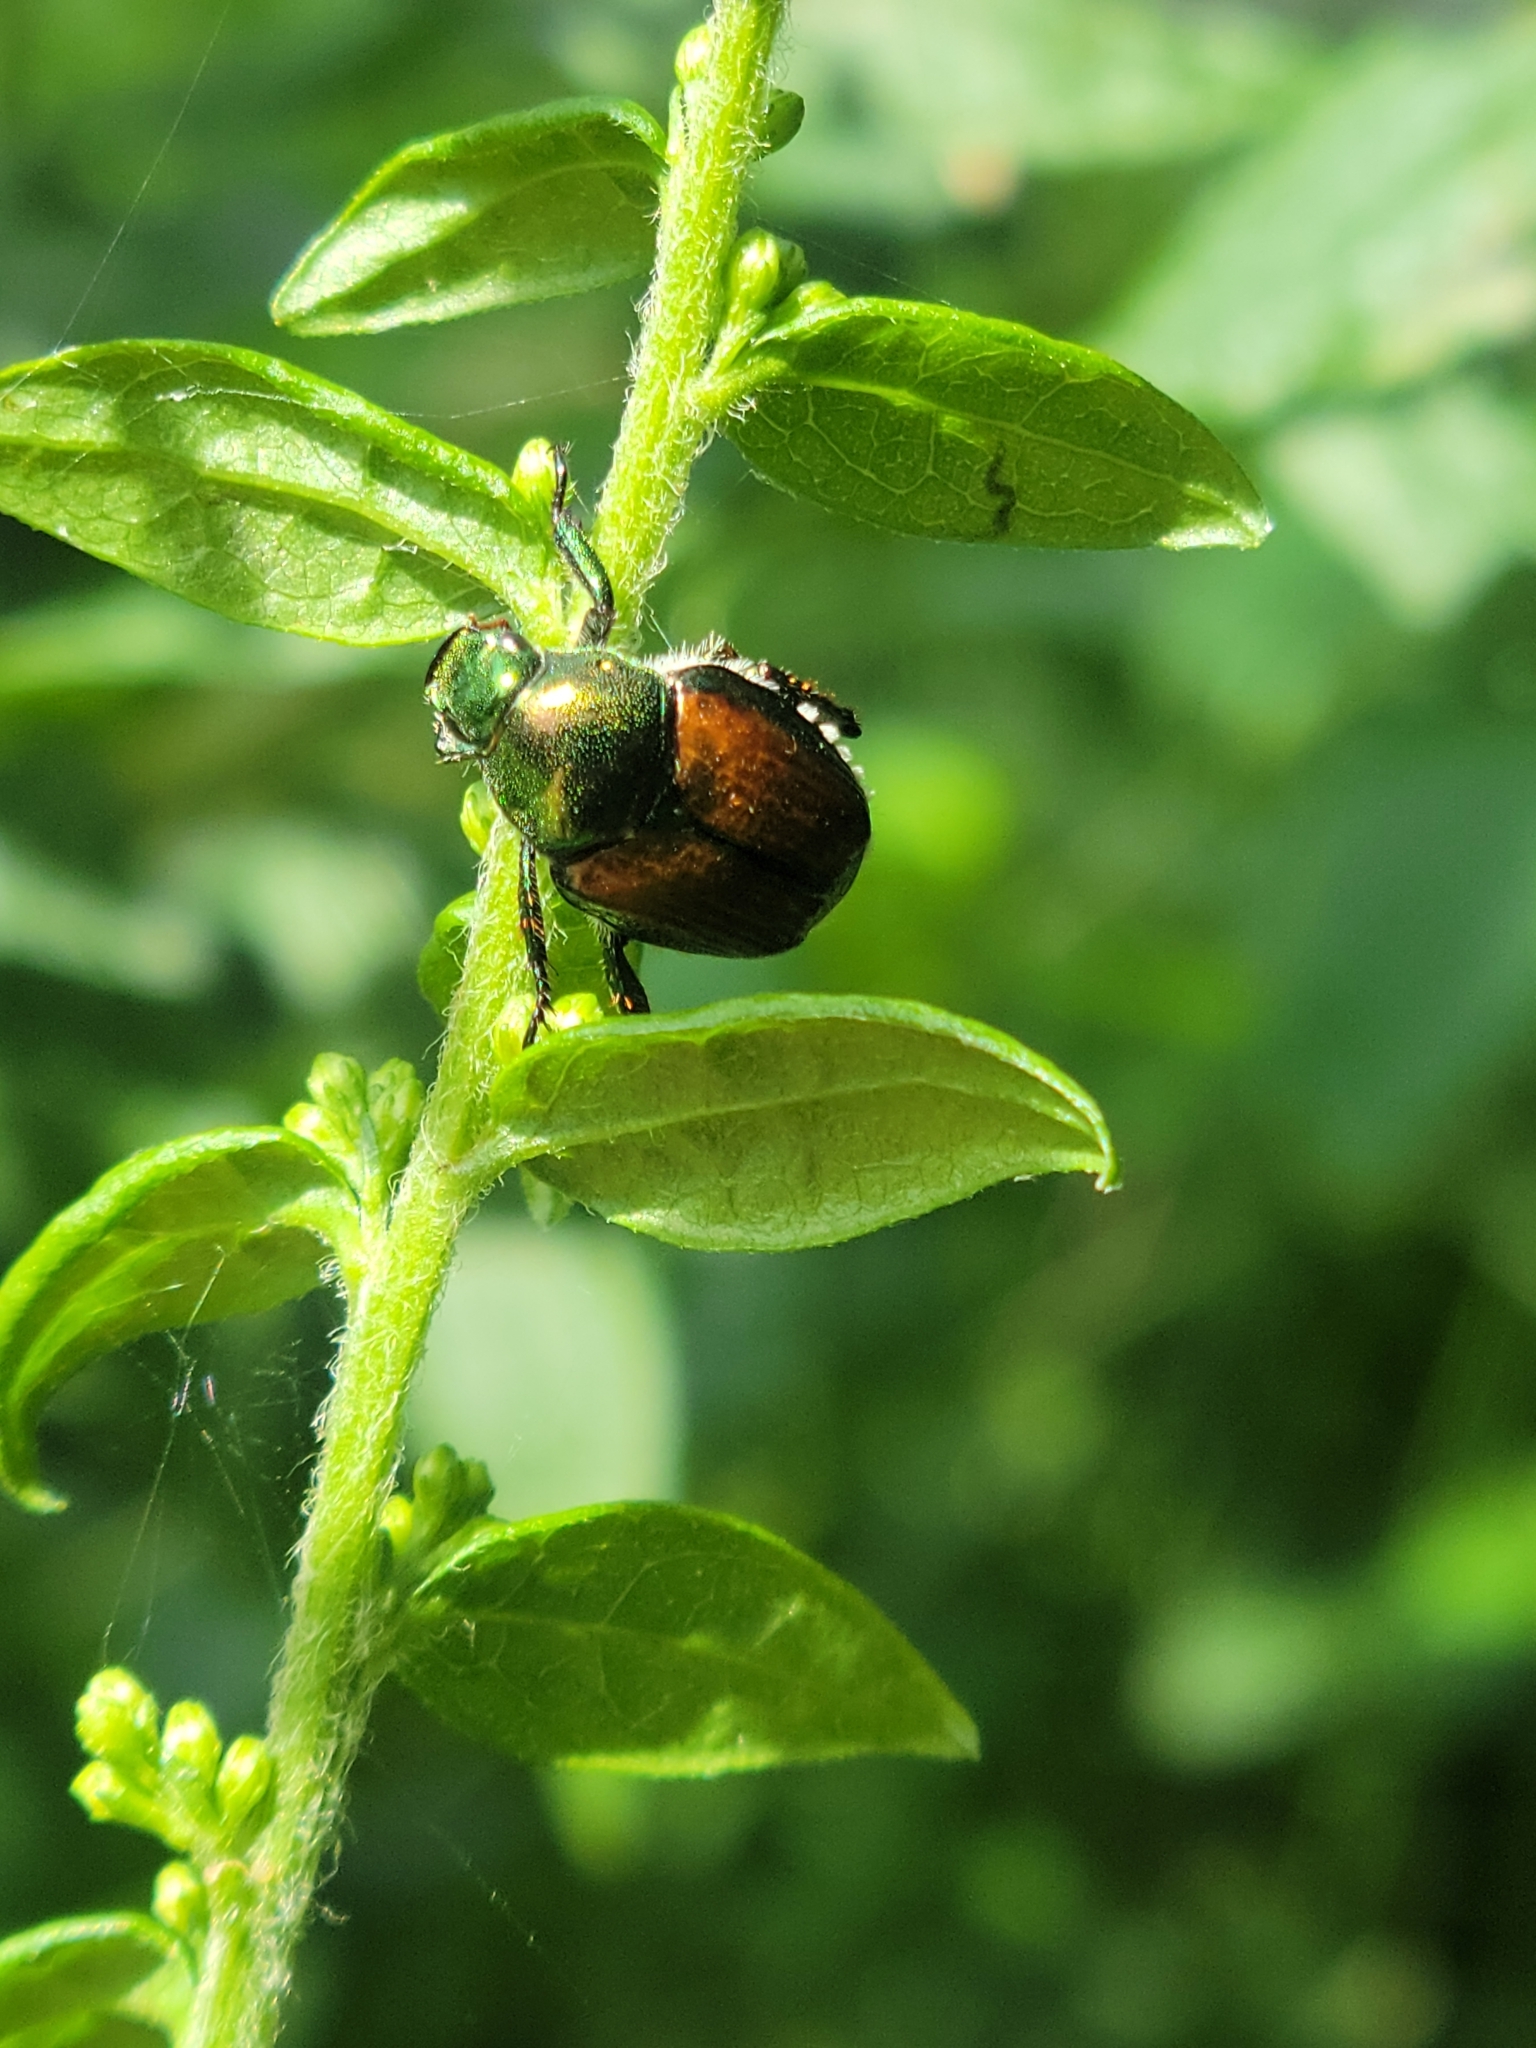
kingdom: Animalia
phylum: Arthropoda
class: Insecta
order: Coleoptera
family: Scarabaeidae
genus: Popillia
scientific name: Popillia japonica
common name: Japanese beetle
